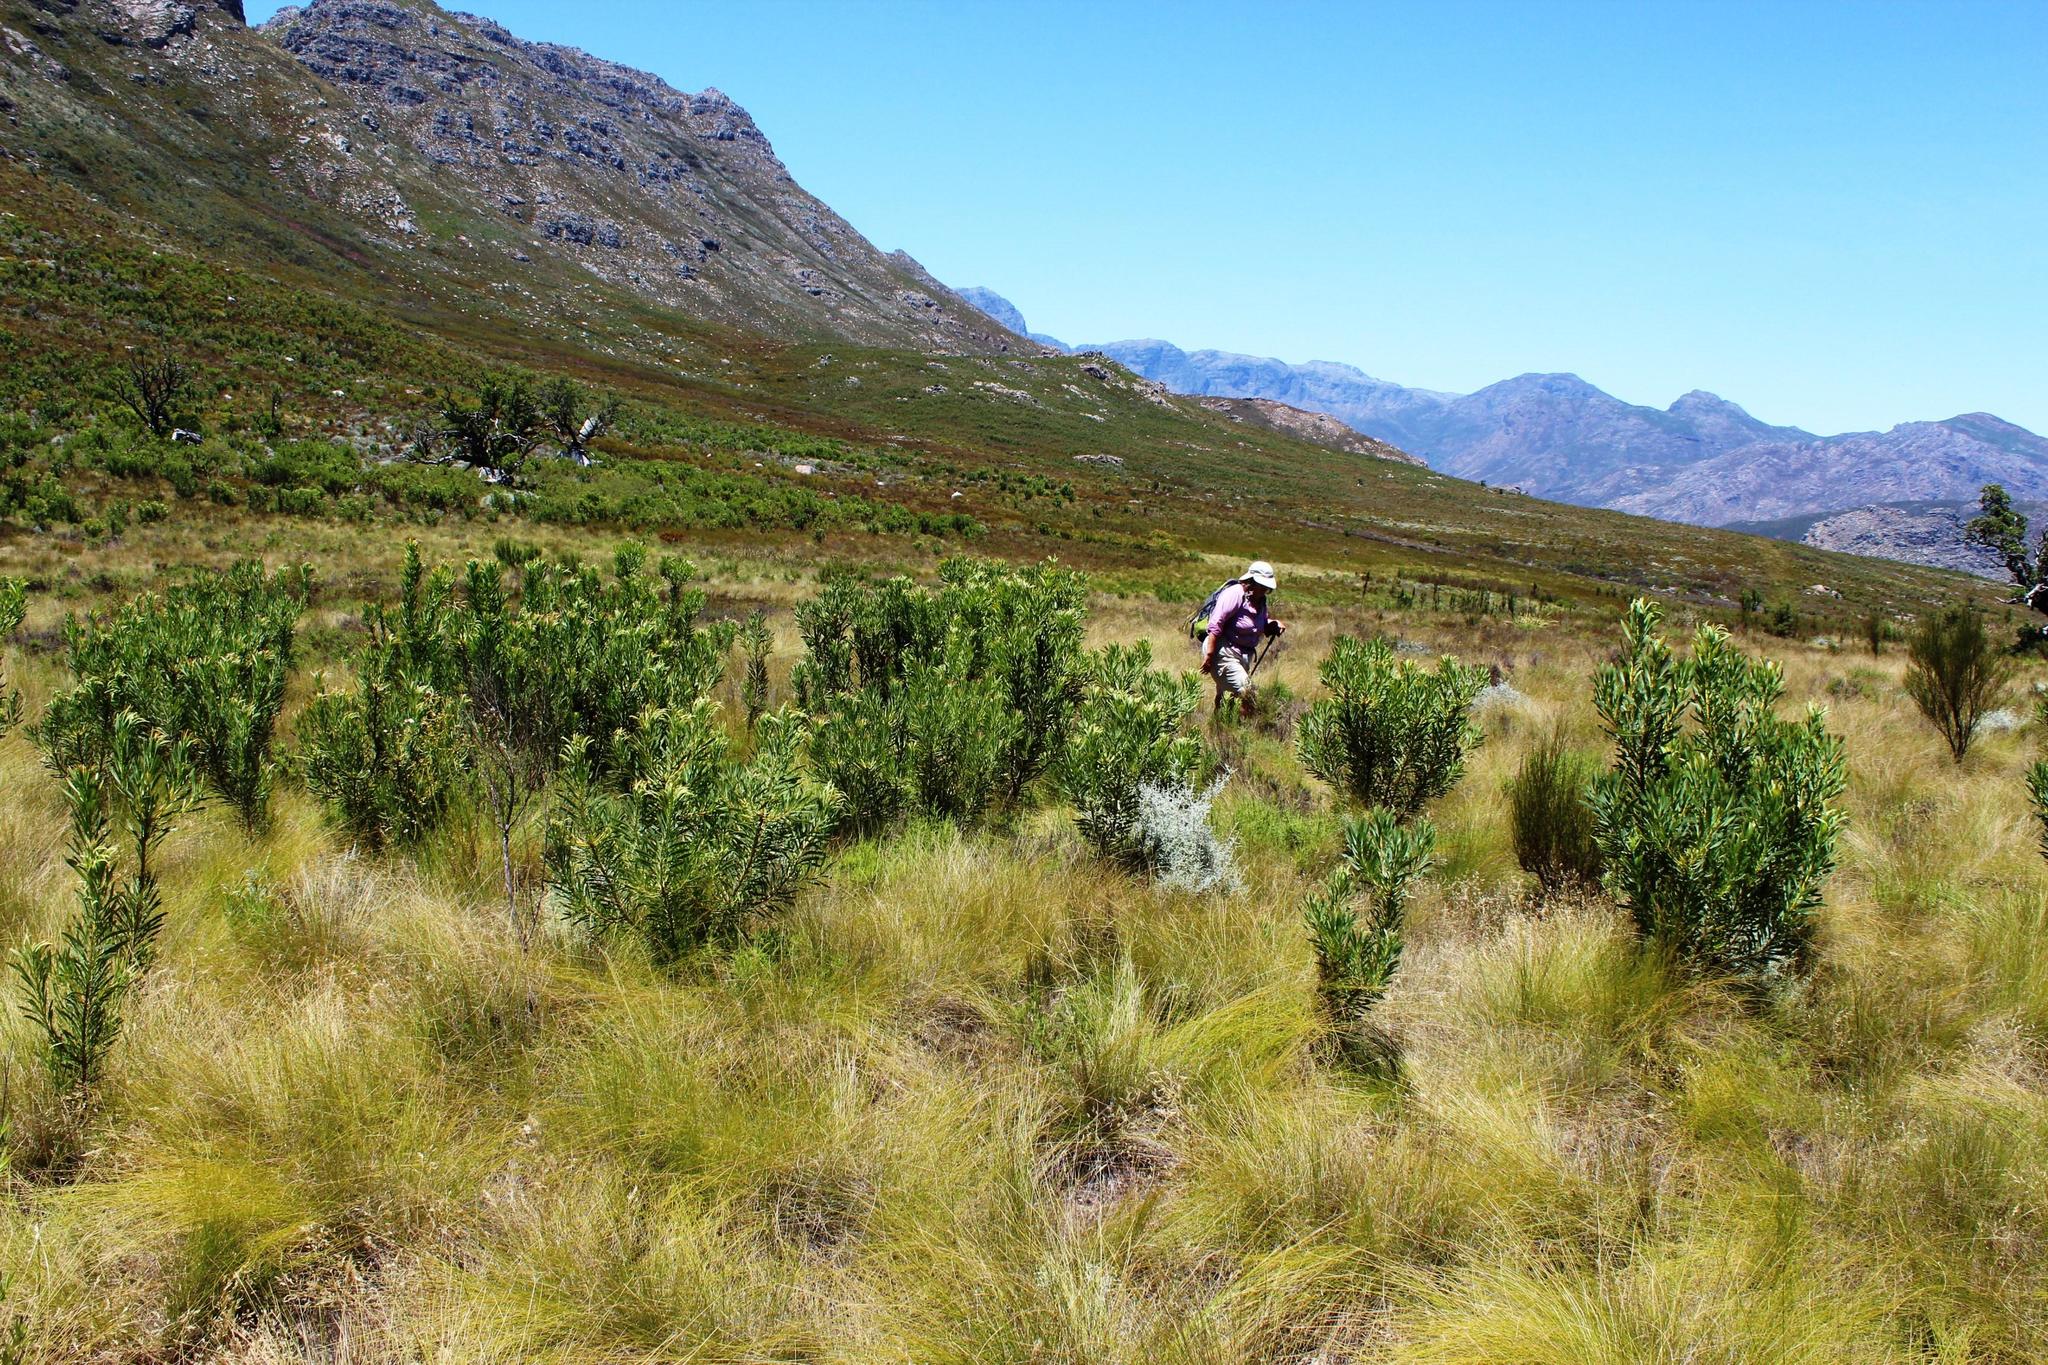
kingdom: Plantae
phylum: Tracheophyta
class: Magnoliopsida
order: Proteales
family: Proteaceae
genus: Protea
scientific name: Protea repens
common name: Sugarbush
